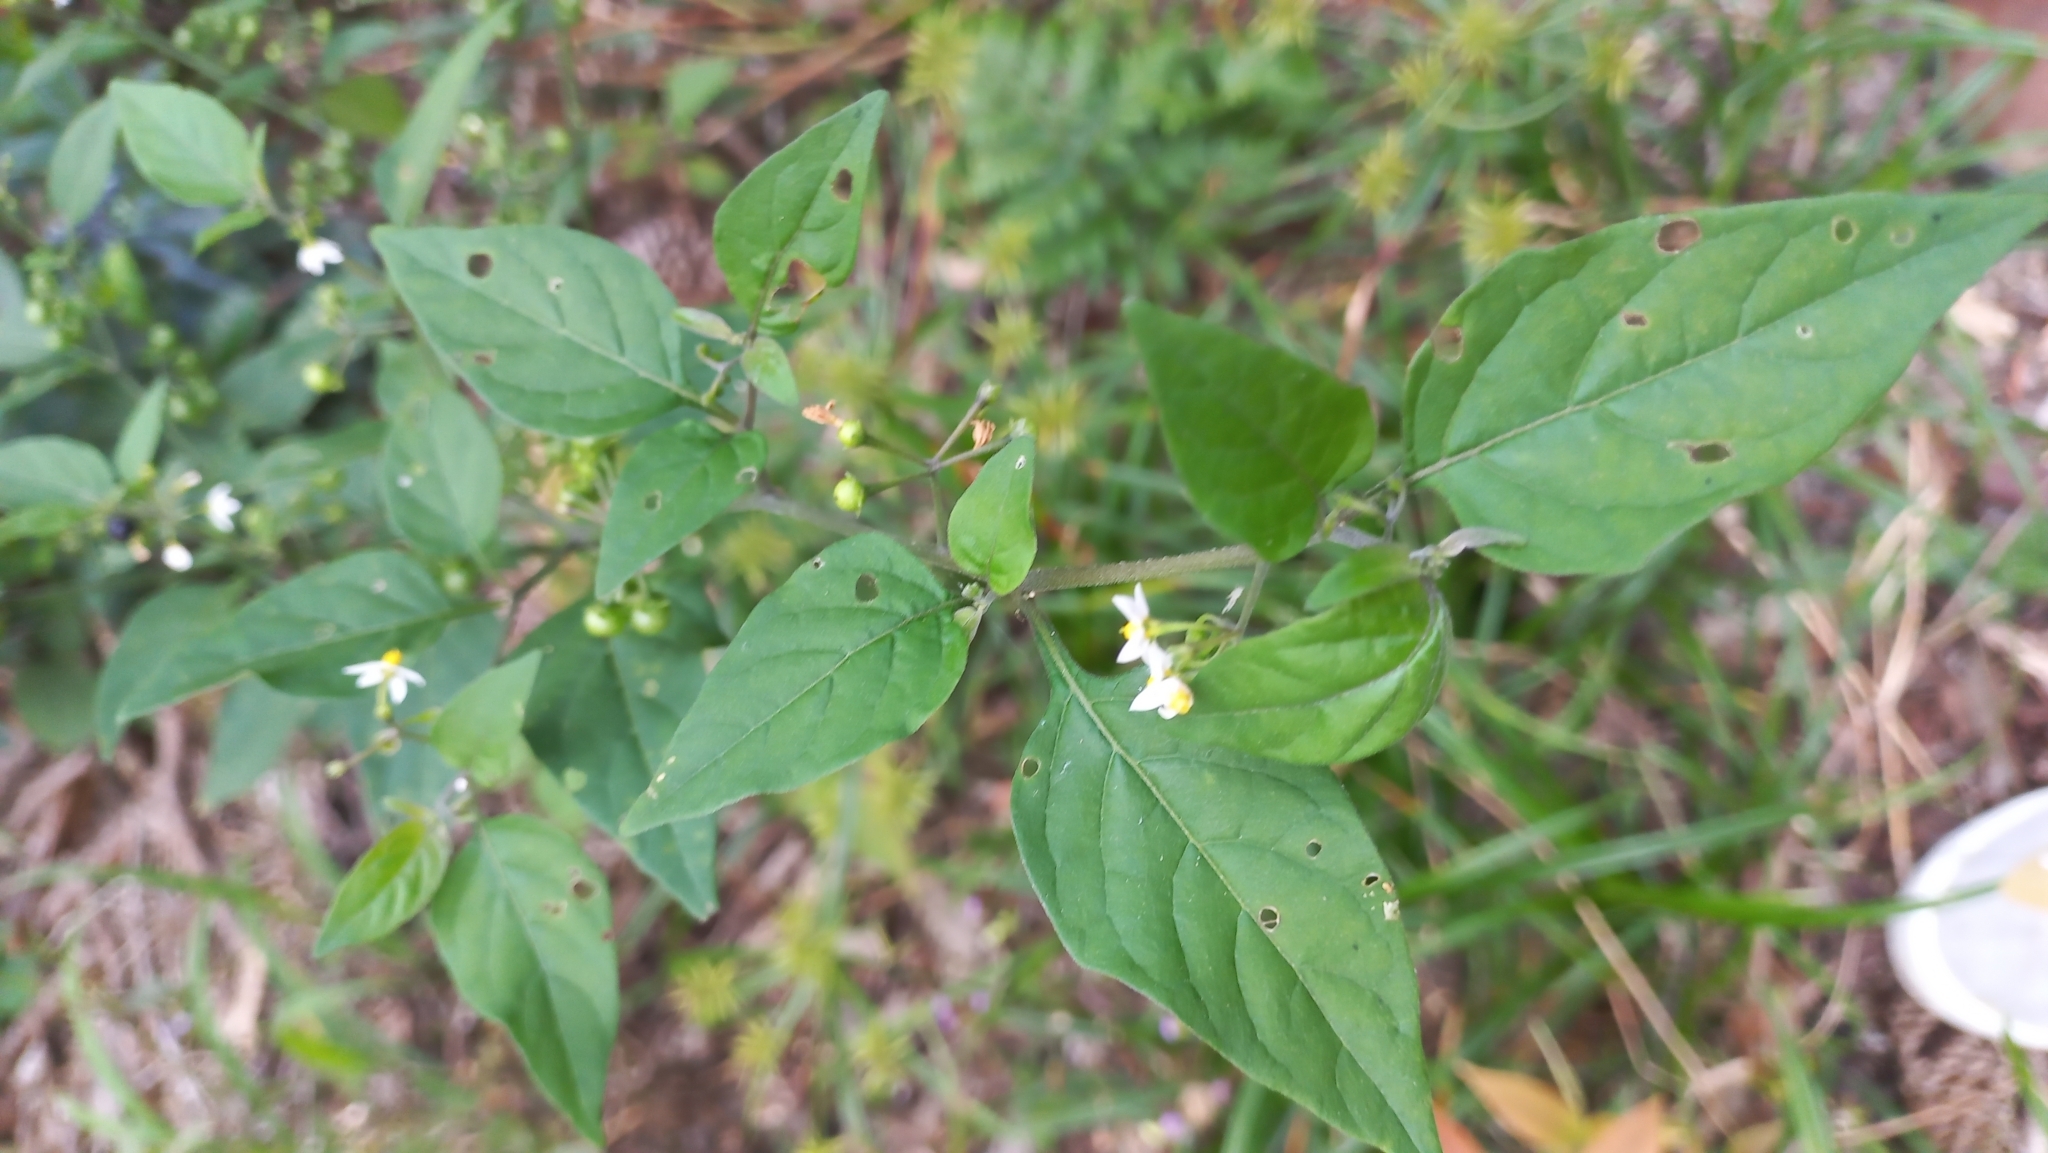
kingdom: Plantae
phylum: Tracheophyta
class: Magnoliopsida
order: Solanales
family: Solanaceae
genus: Solanum
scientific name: Solanum americanum
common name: American black nightshade
